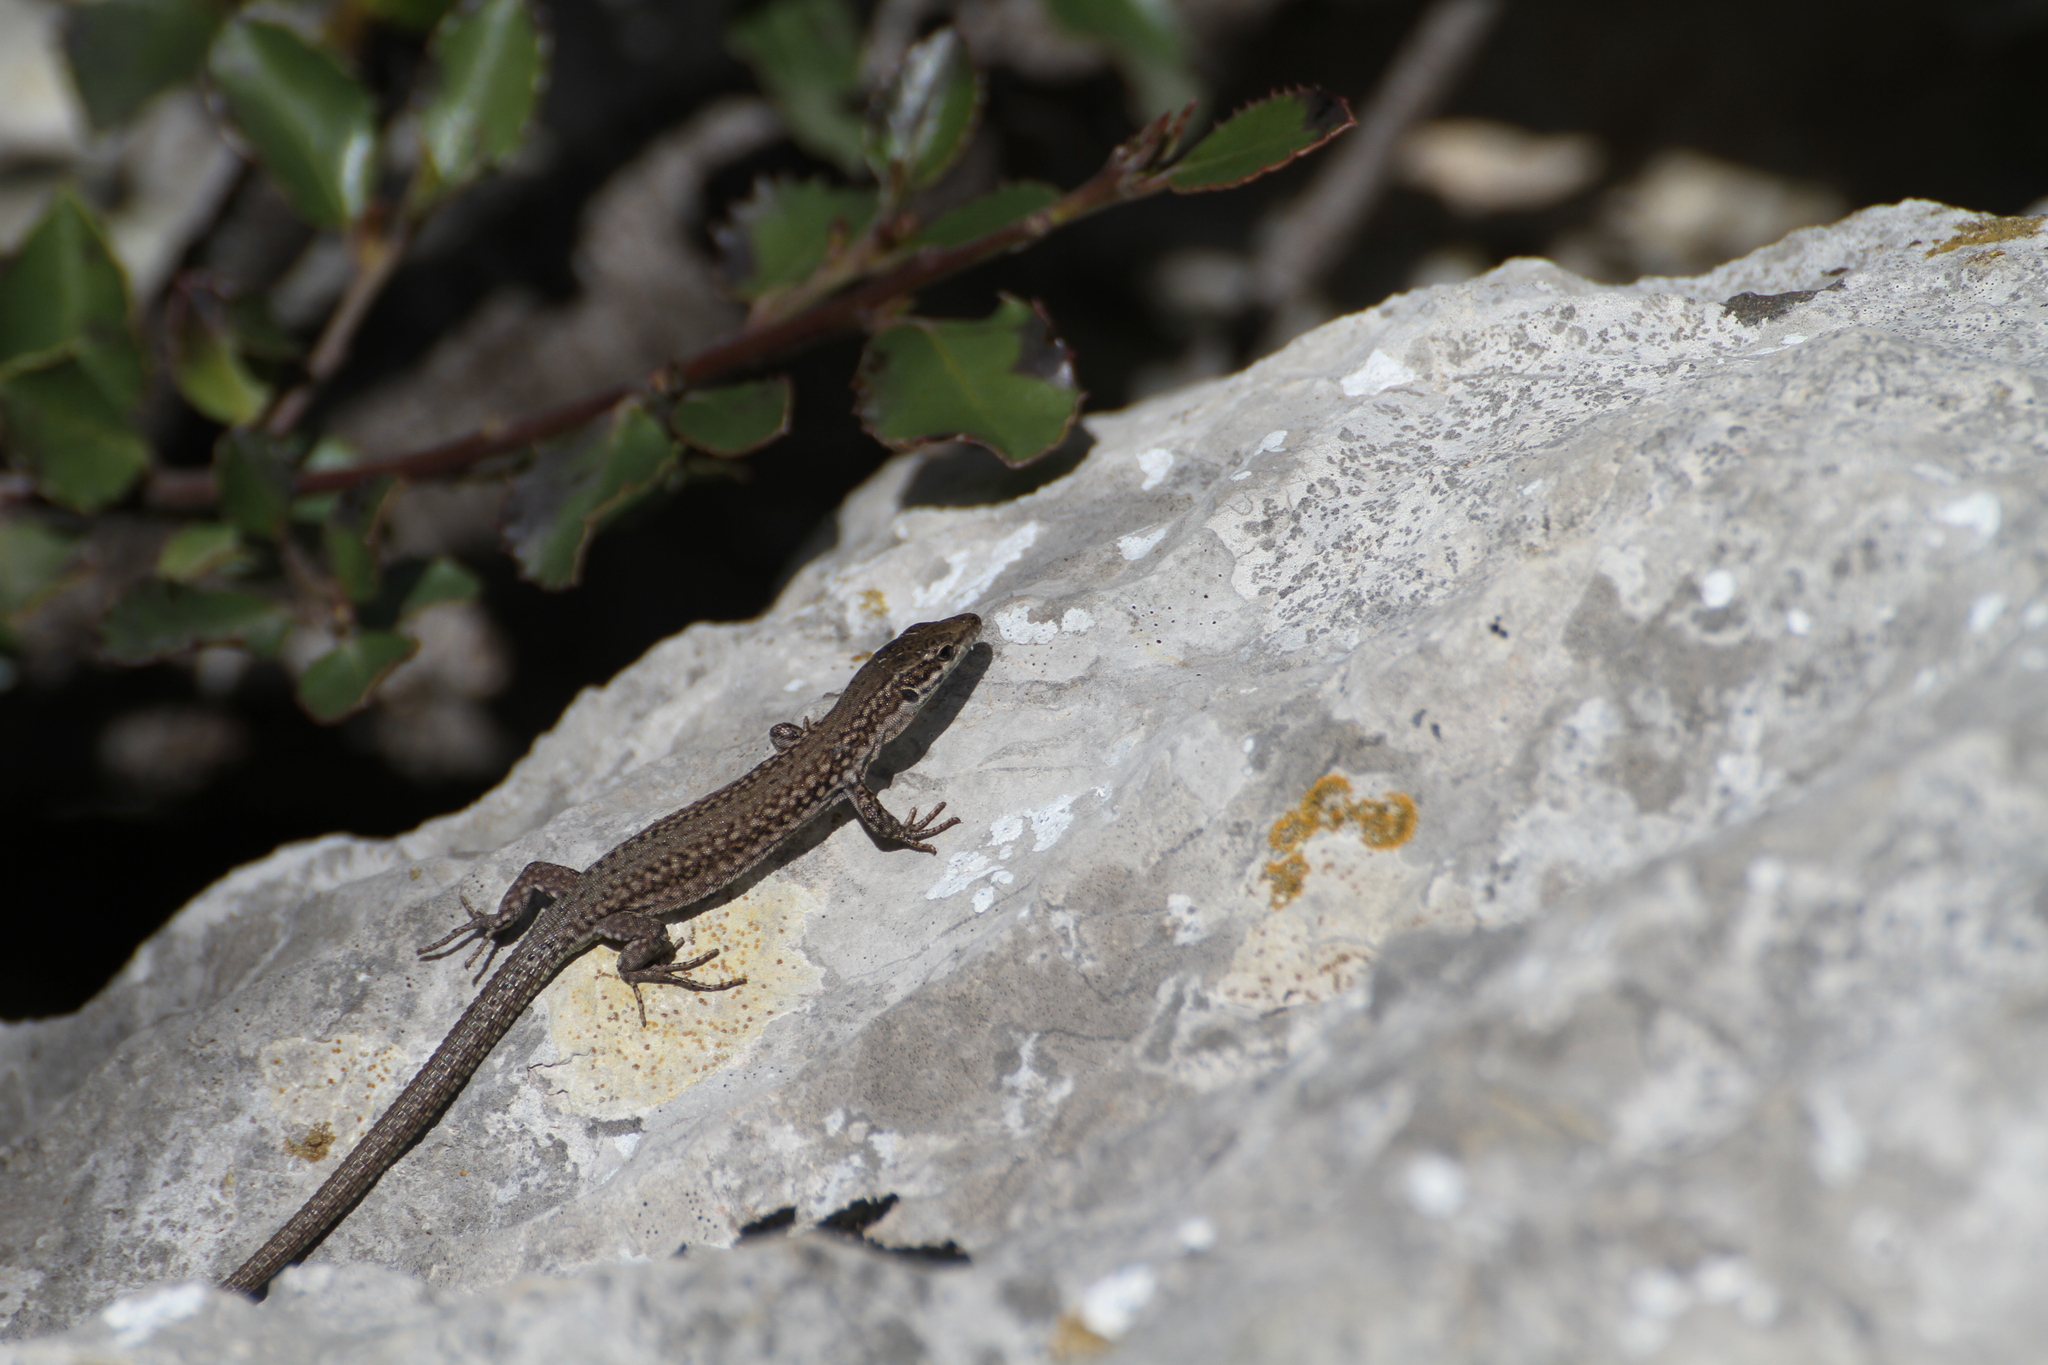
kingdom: Animalia
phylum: Chordata
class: Squamata
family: Lacertidae
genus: Podarcis
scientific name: Podarcis liolepis
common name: Catalonian wall lizard
